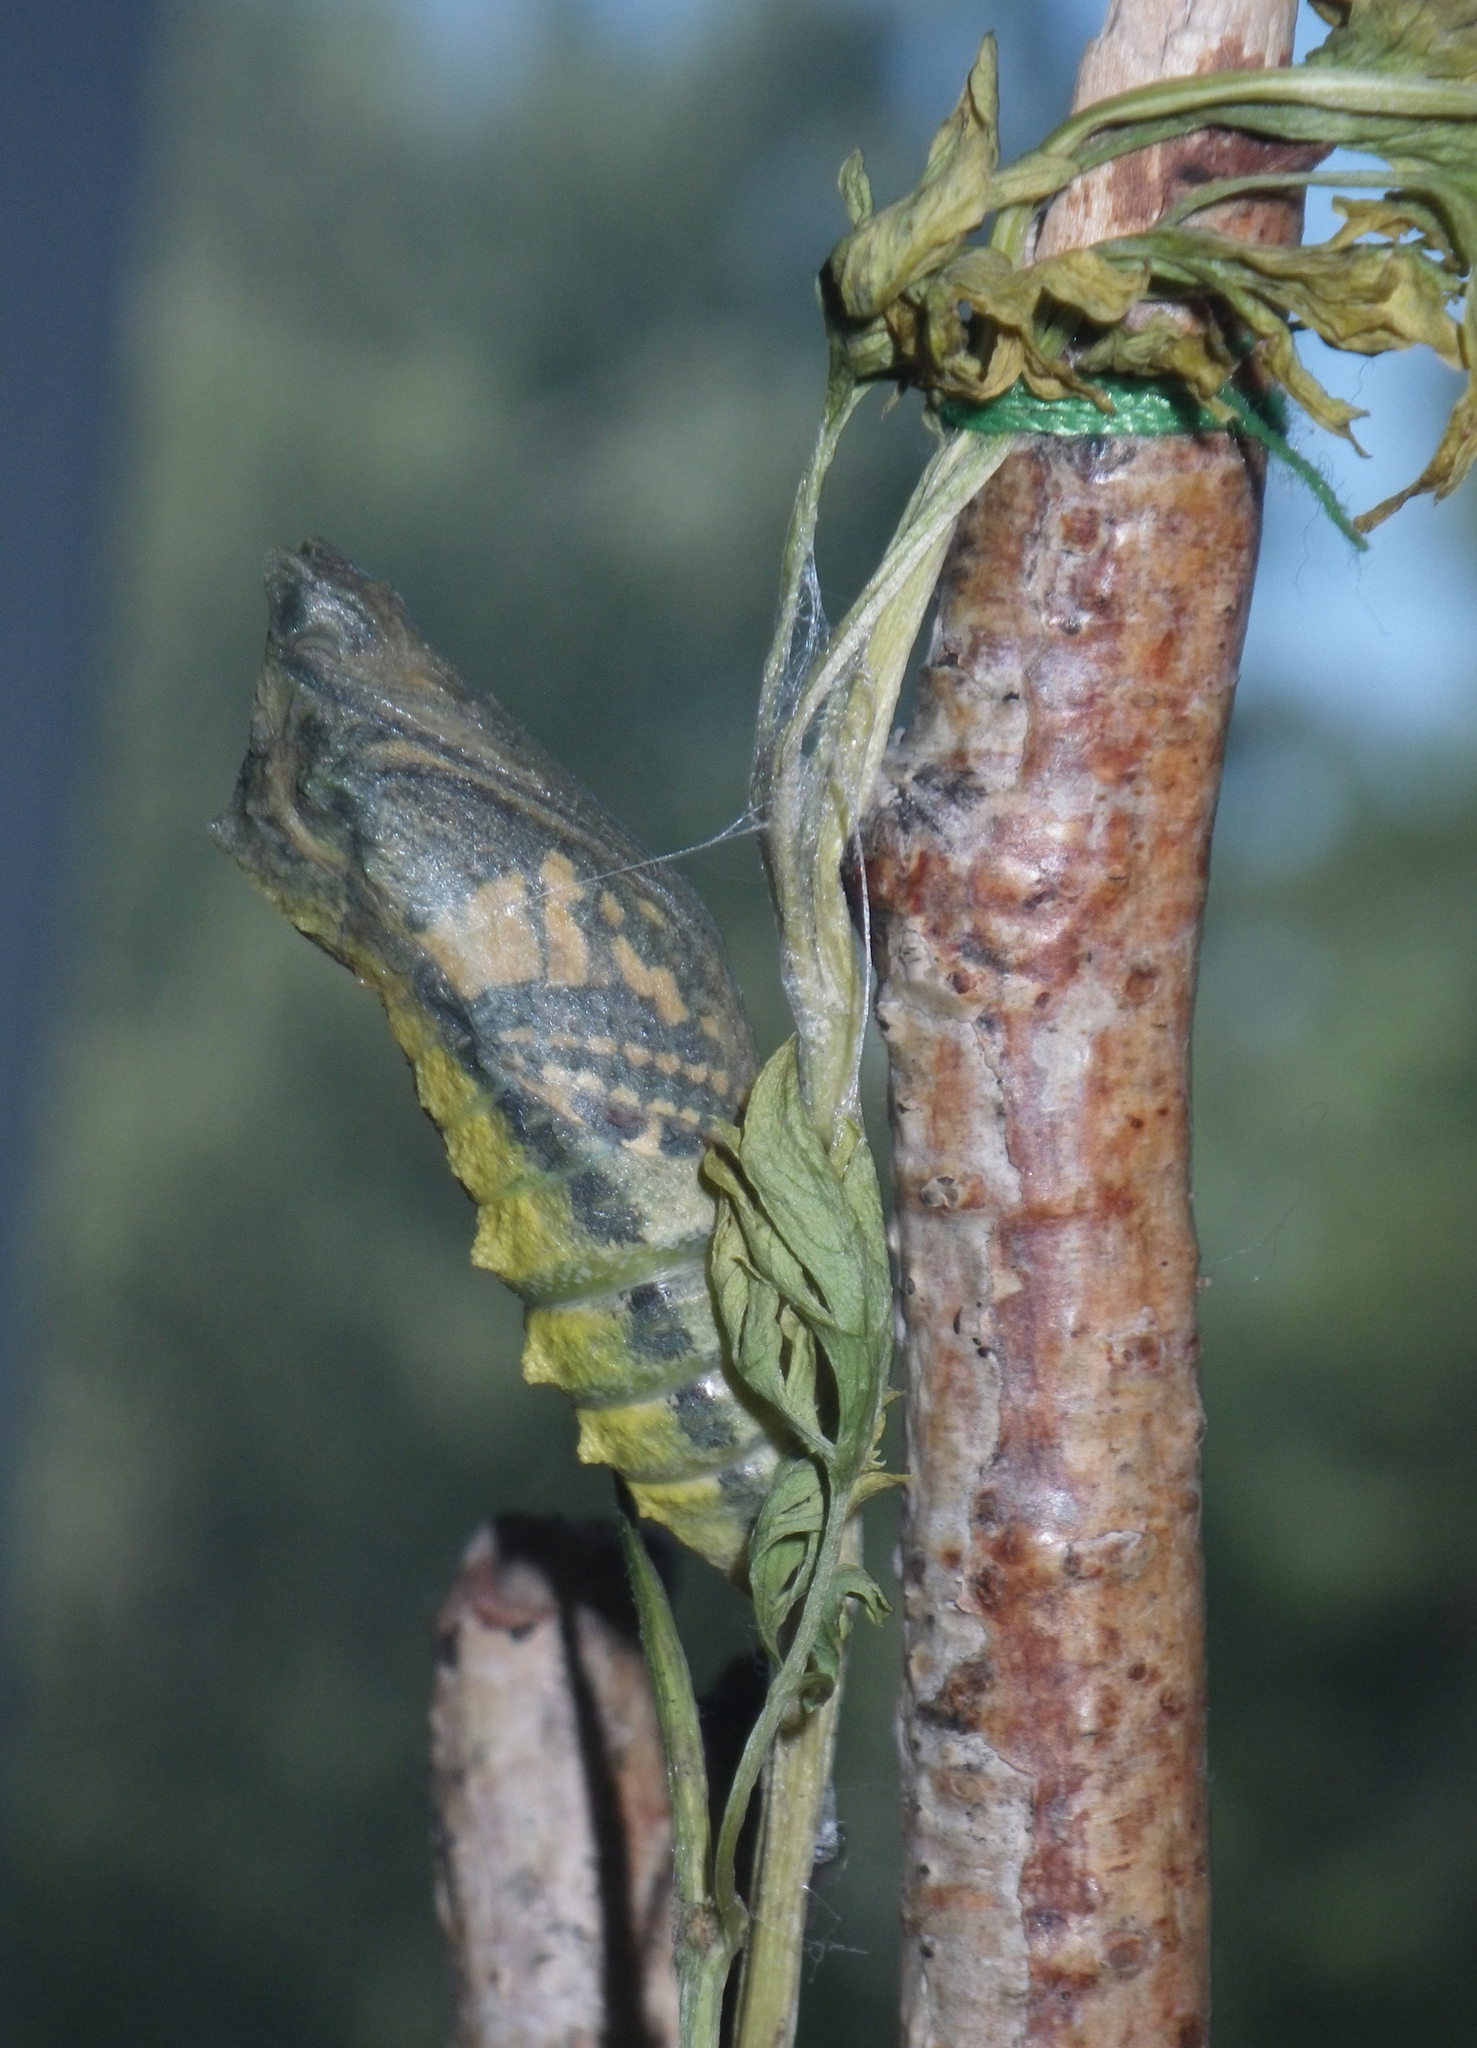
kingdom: Animalia
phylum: Arthropoda
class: Insecta
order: Lepidoptera
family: Papilionidae
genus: Papilio
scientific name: Papilio machaon
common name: Swallowtail
